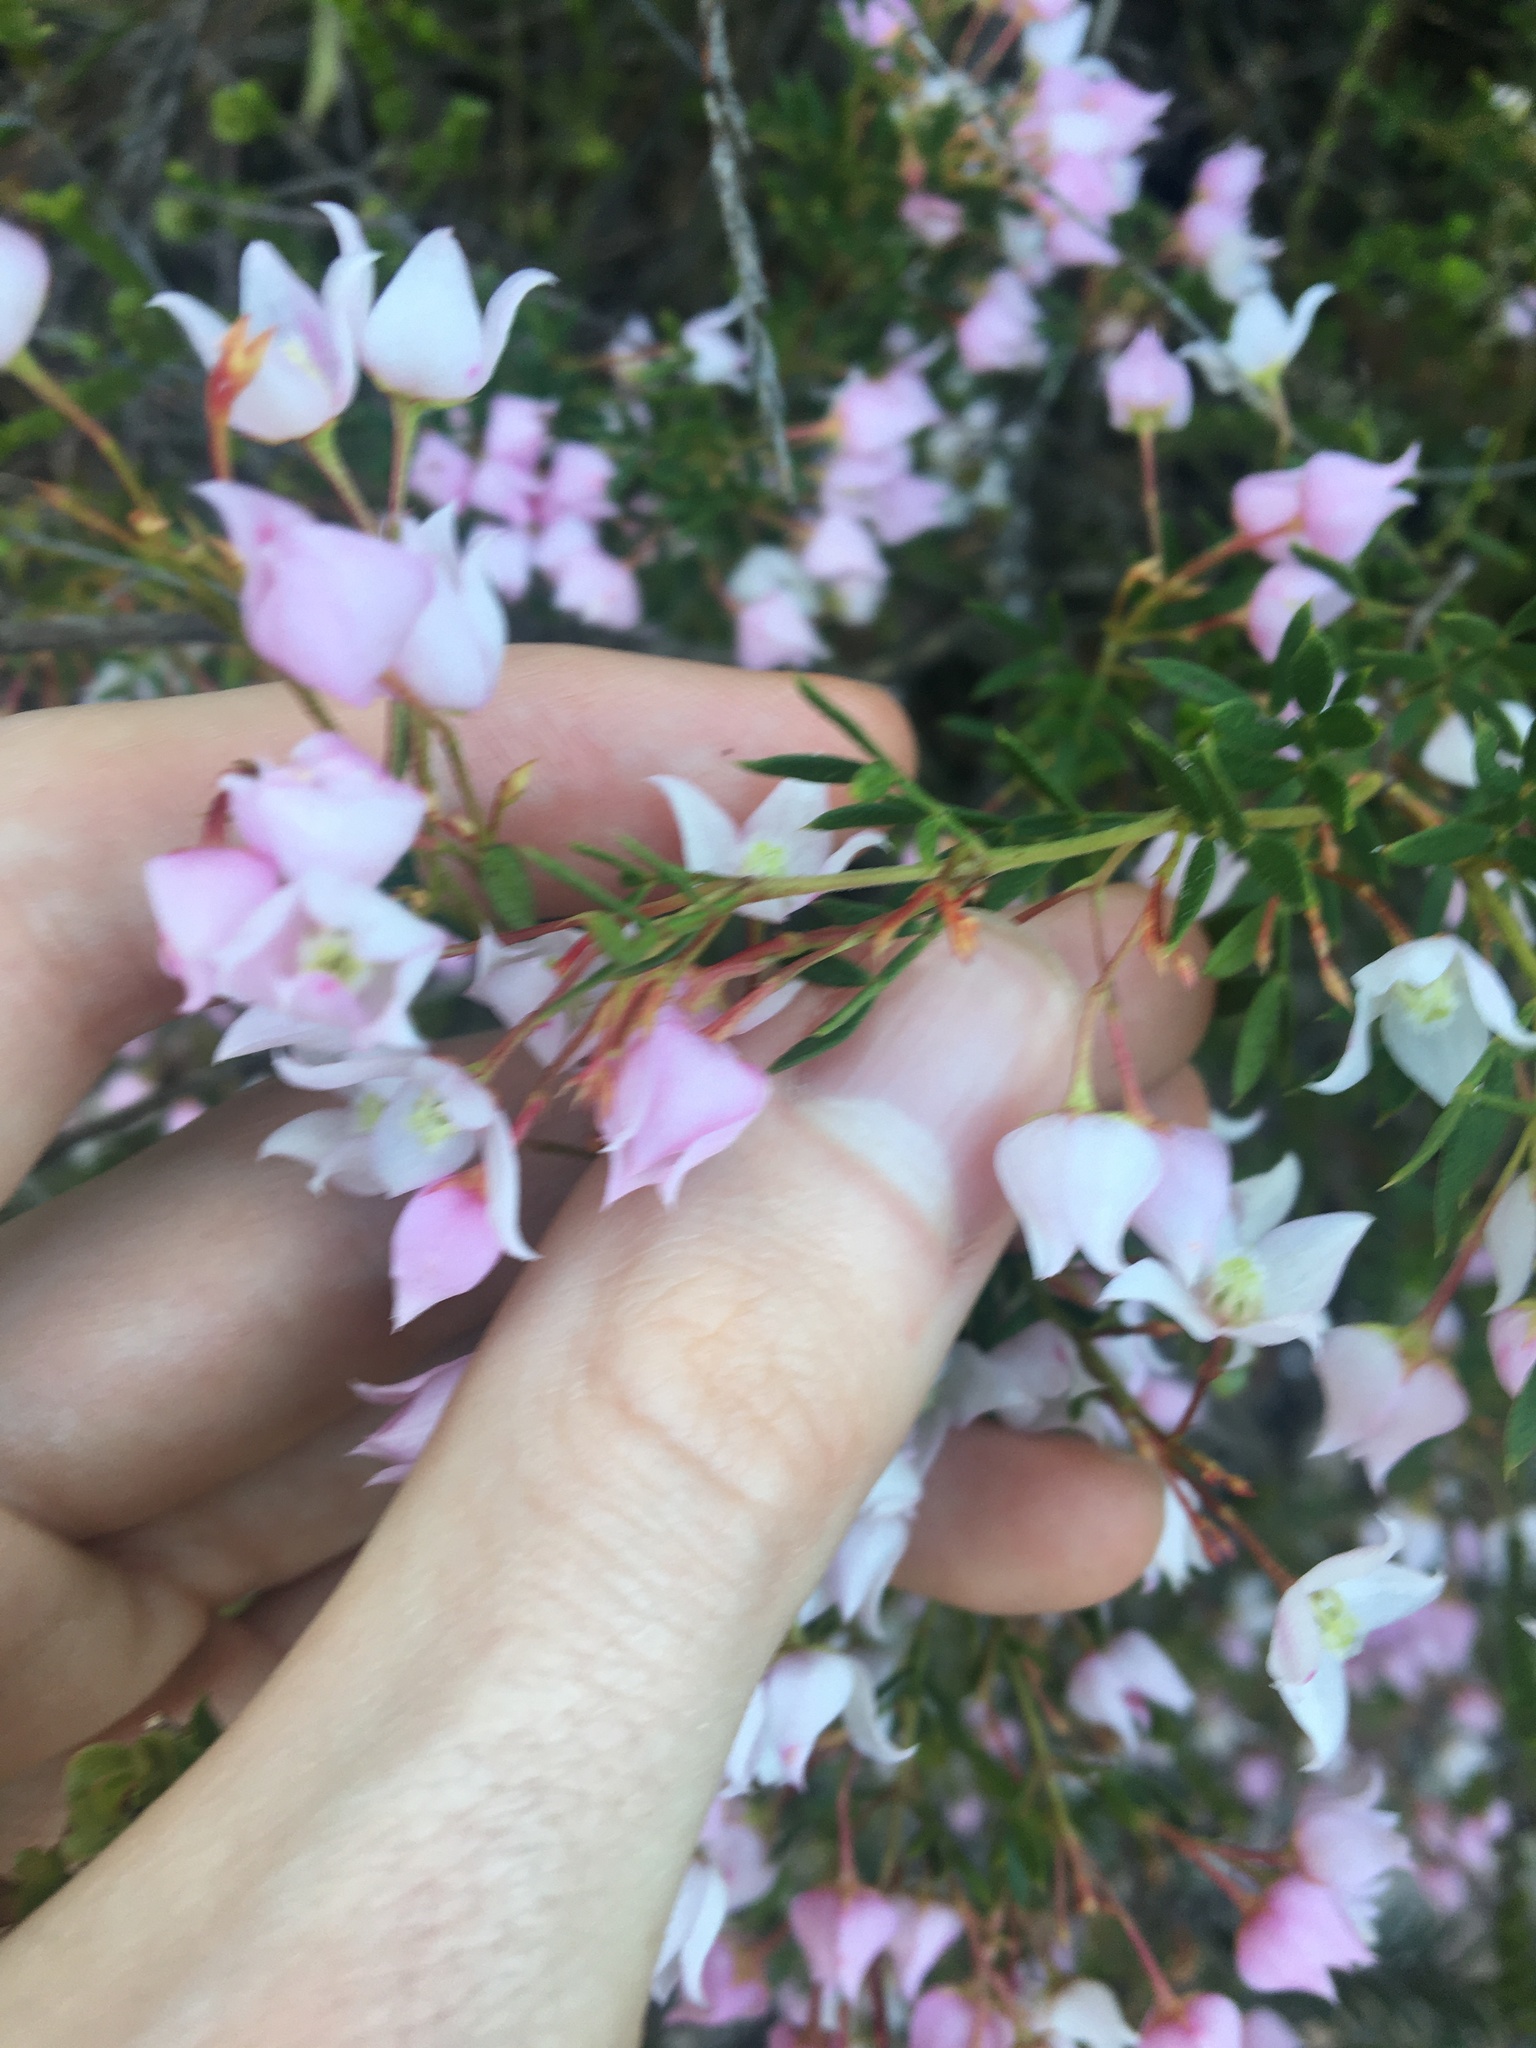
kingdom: Plantae
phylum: Tracheophyta
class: Magnoliopsida
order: Sapindales
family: Rutaceae
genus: Boronia
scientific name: Boronia floribunda
